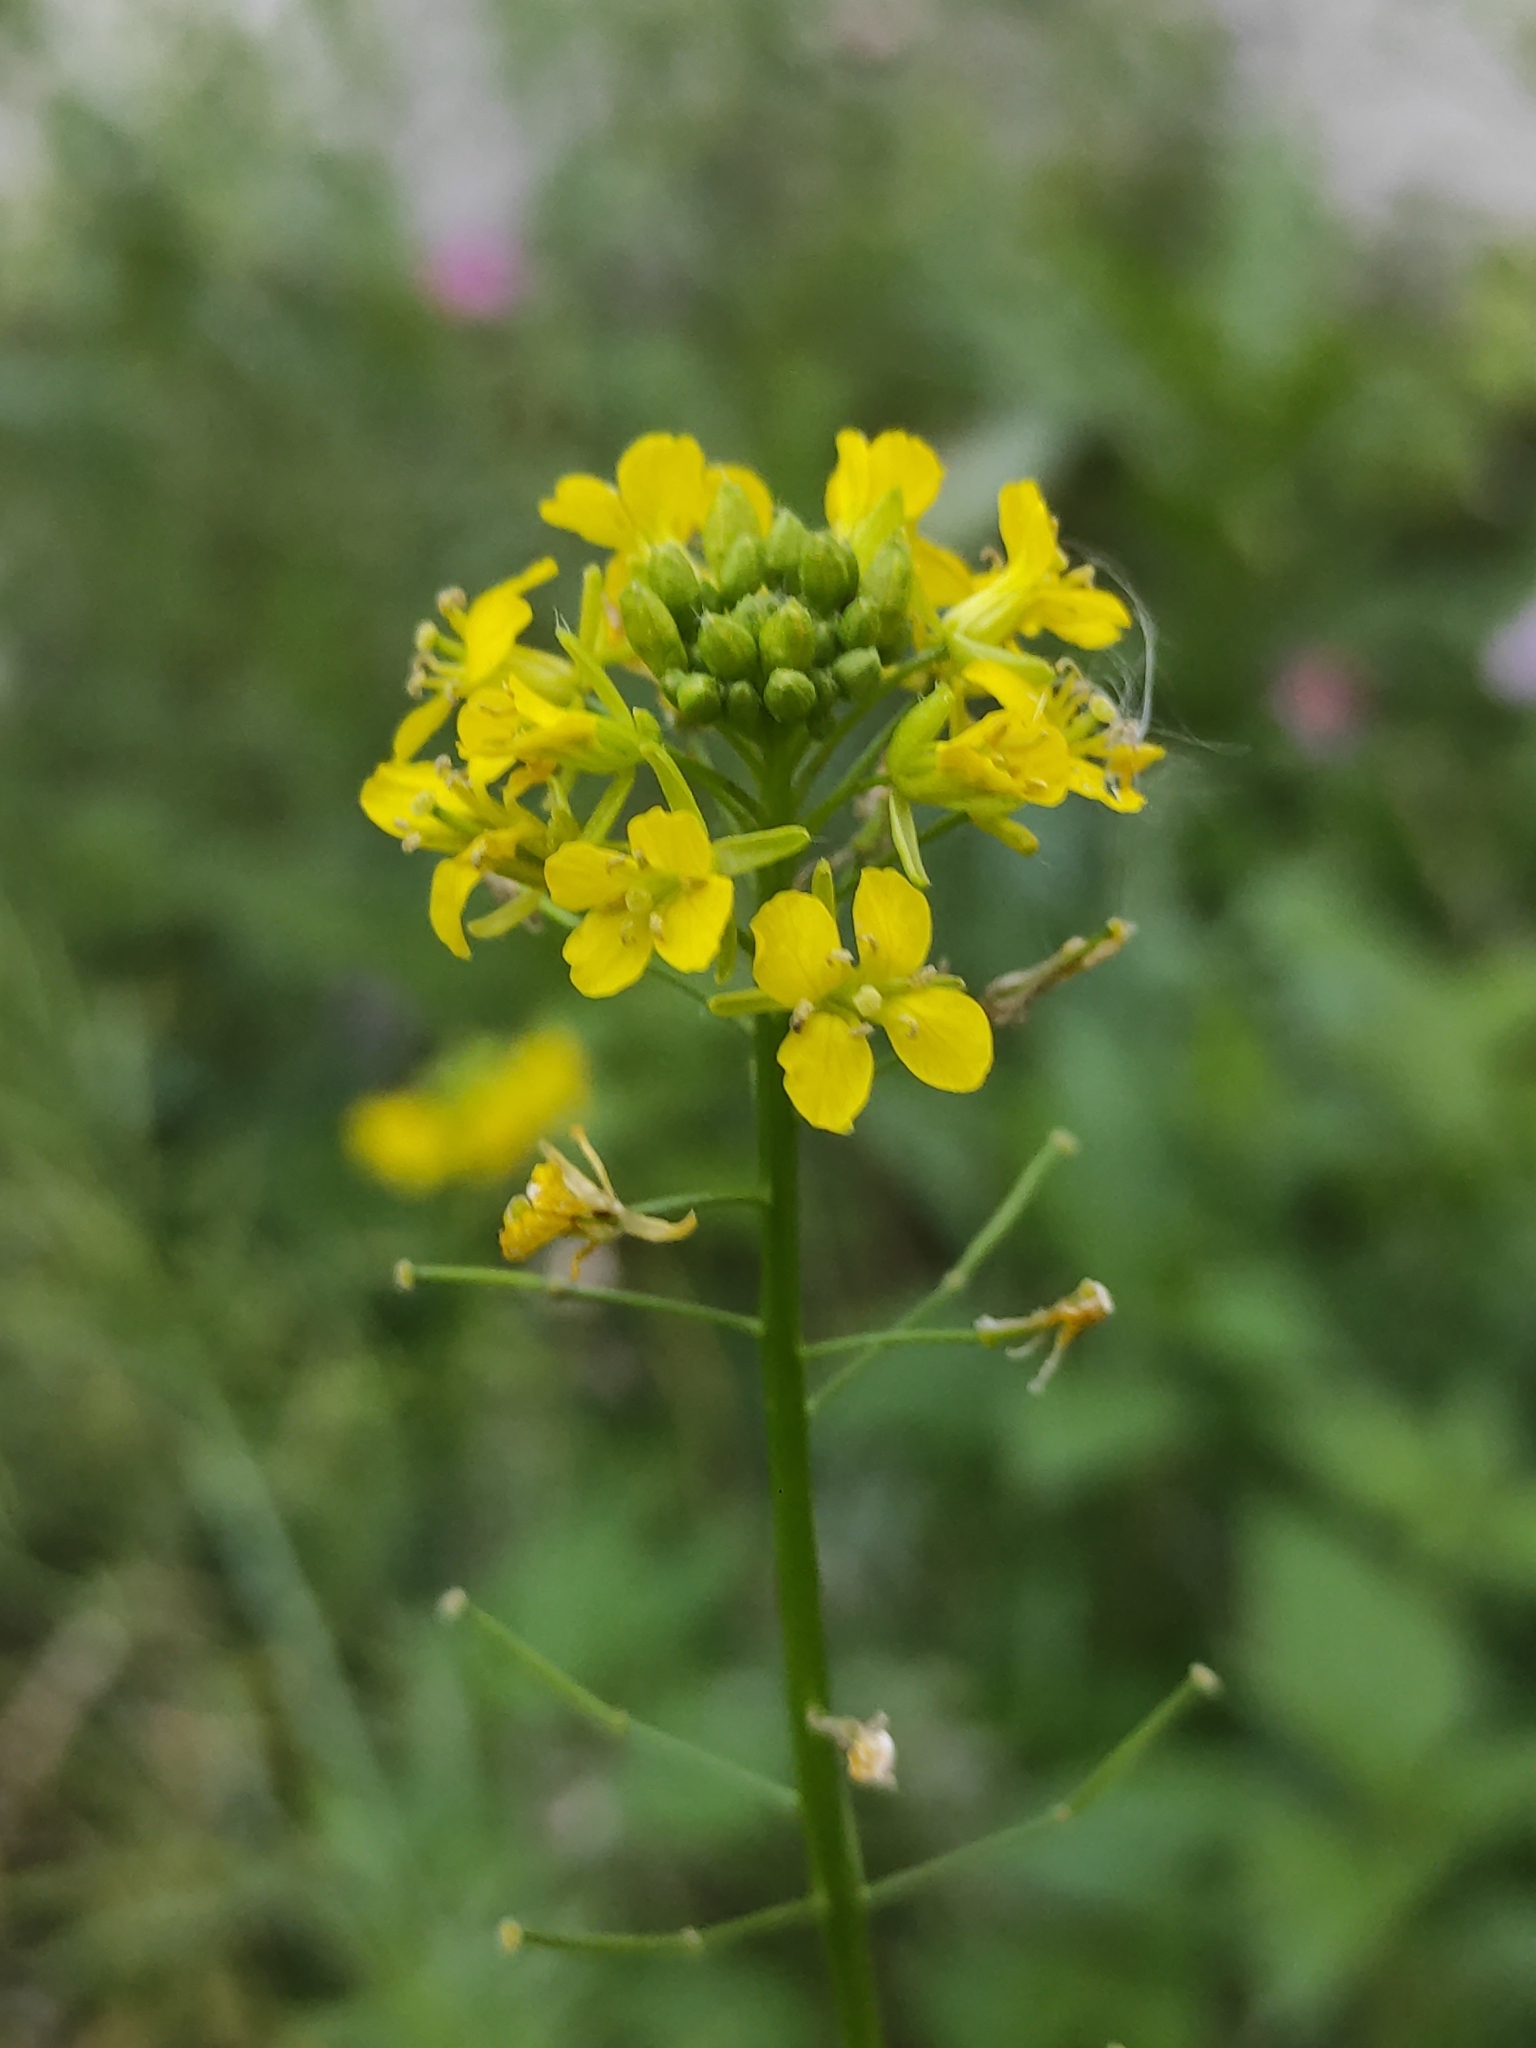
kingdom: Plantae
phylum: Tracheophyta
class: Magnoliopsida
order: Brassicales
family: Brassicaceae
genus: Sisymbrium
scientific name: Sisymbrium loeselii
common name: False london-rocket
